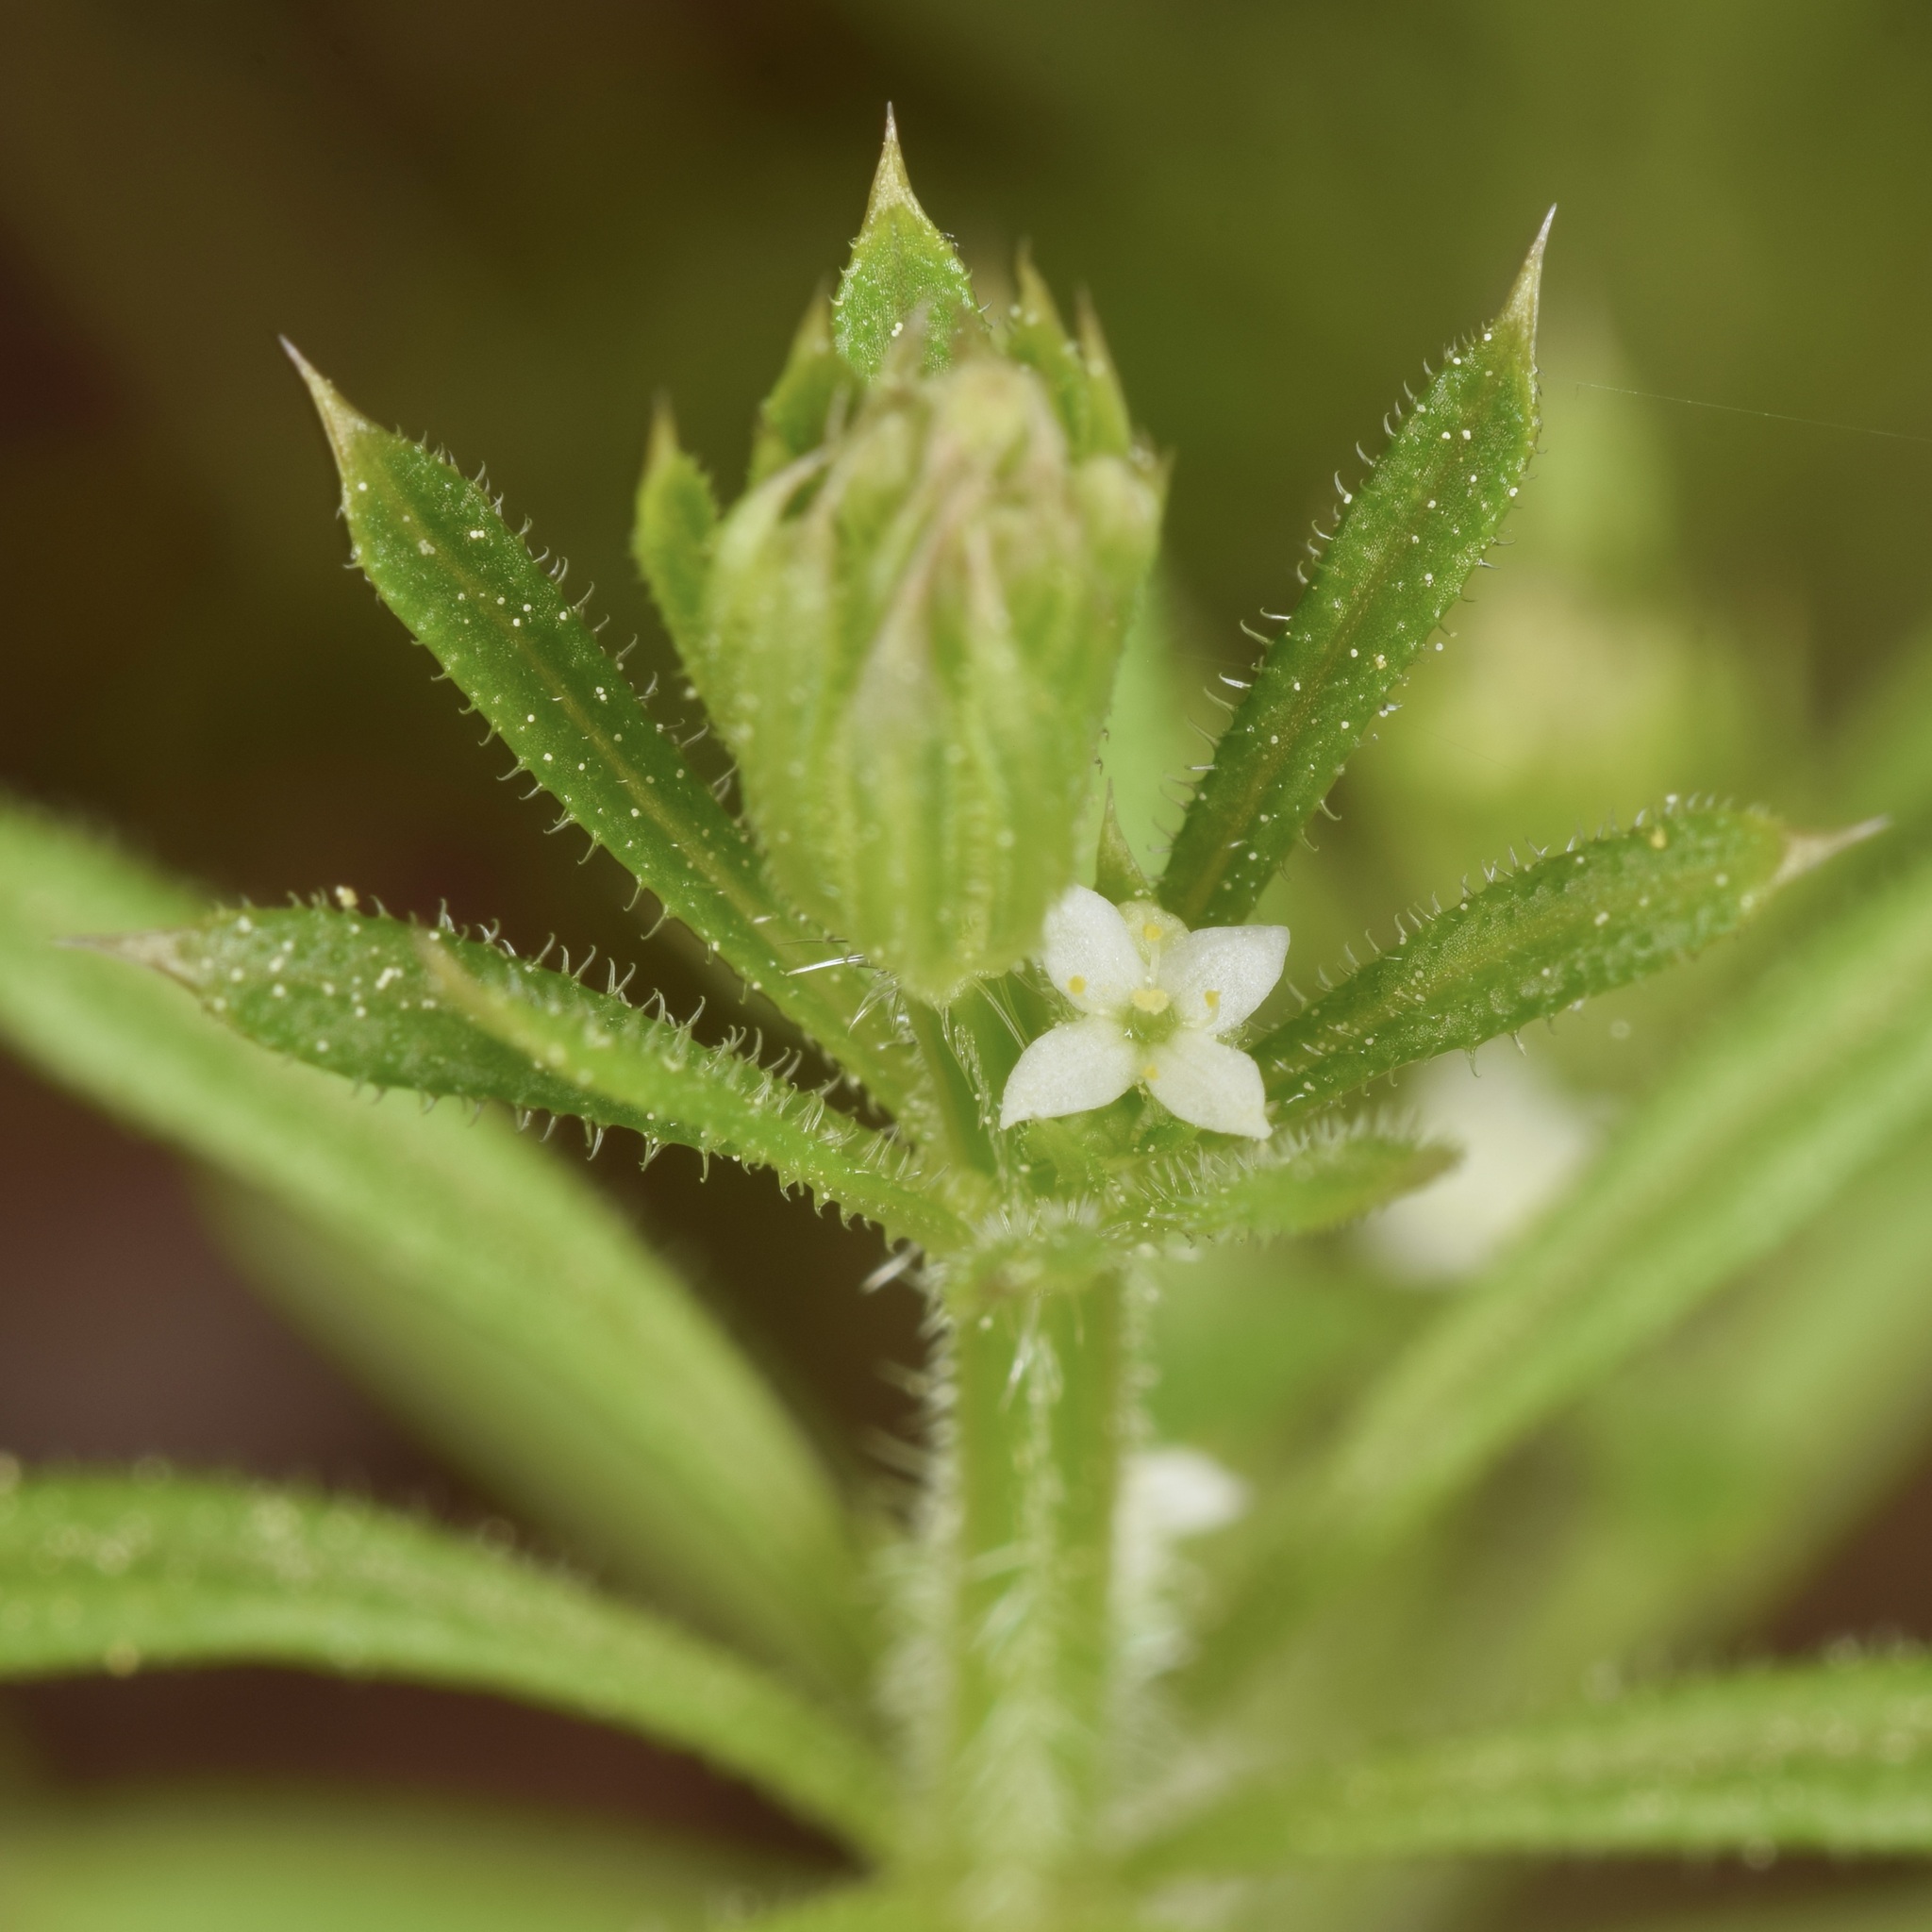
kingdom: Plantae
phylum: Tracheophyta
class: Magnoliopsida
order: Gentianales
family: Rubiaceae
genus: Galium
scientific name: Galium aparine
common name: Cleavers
